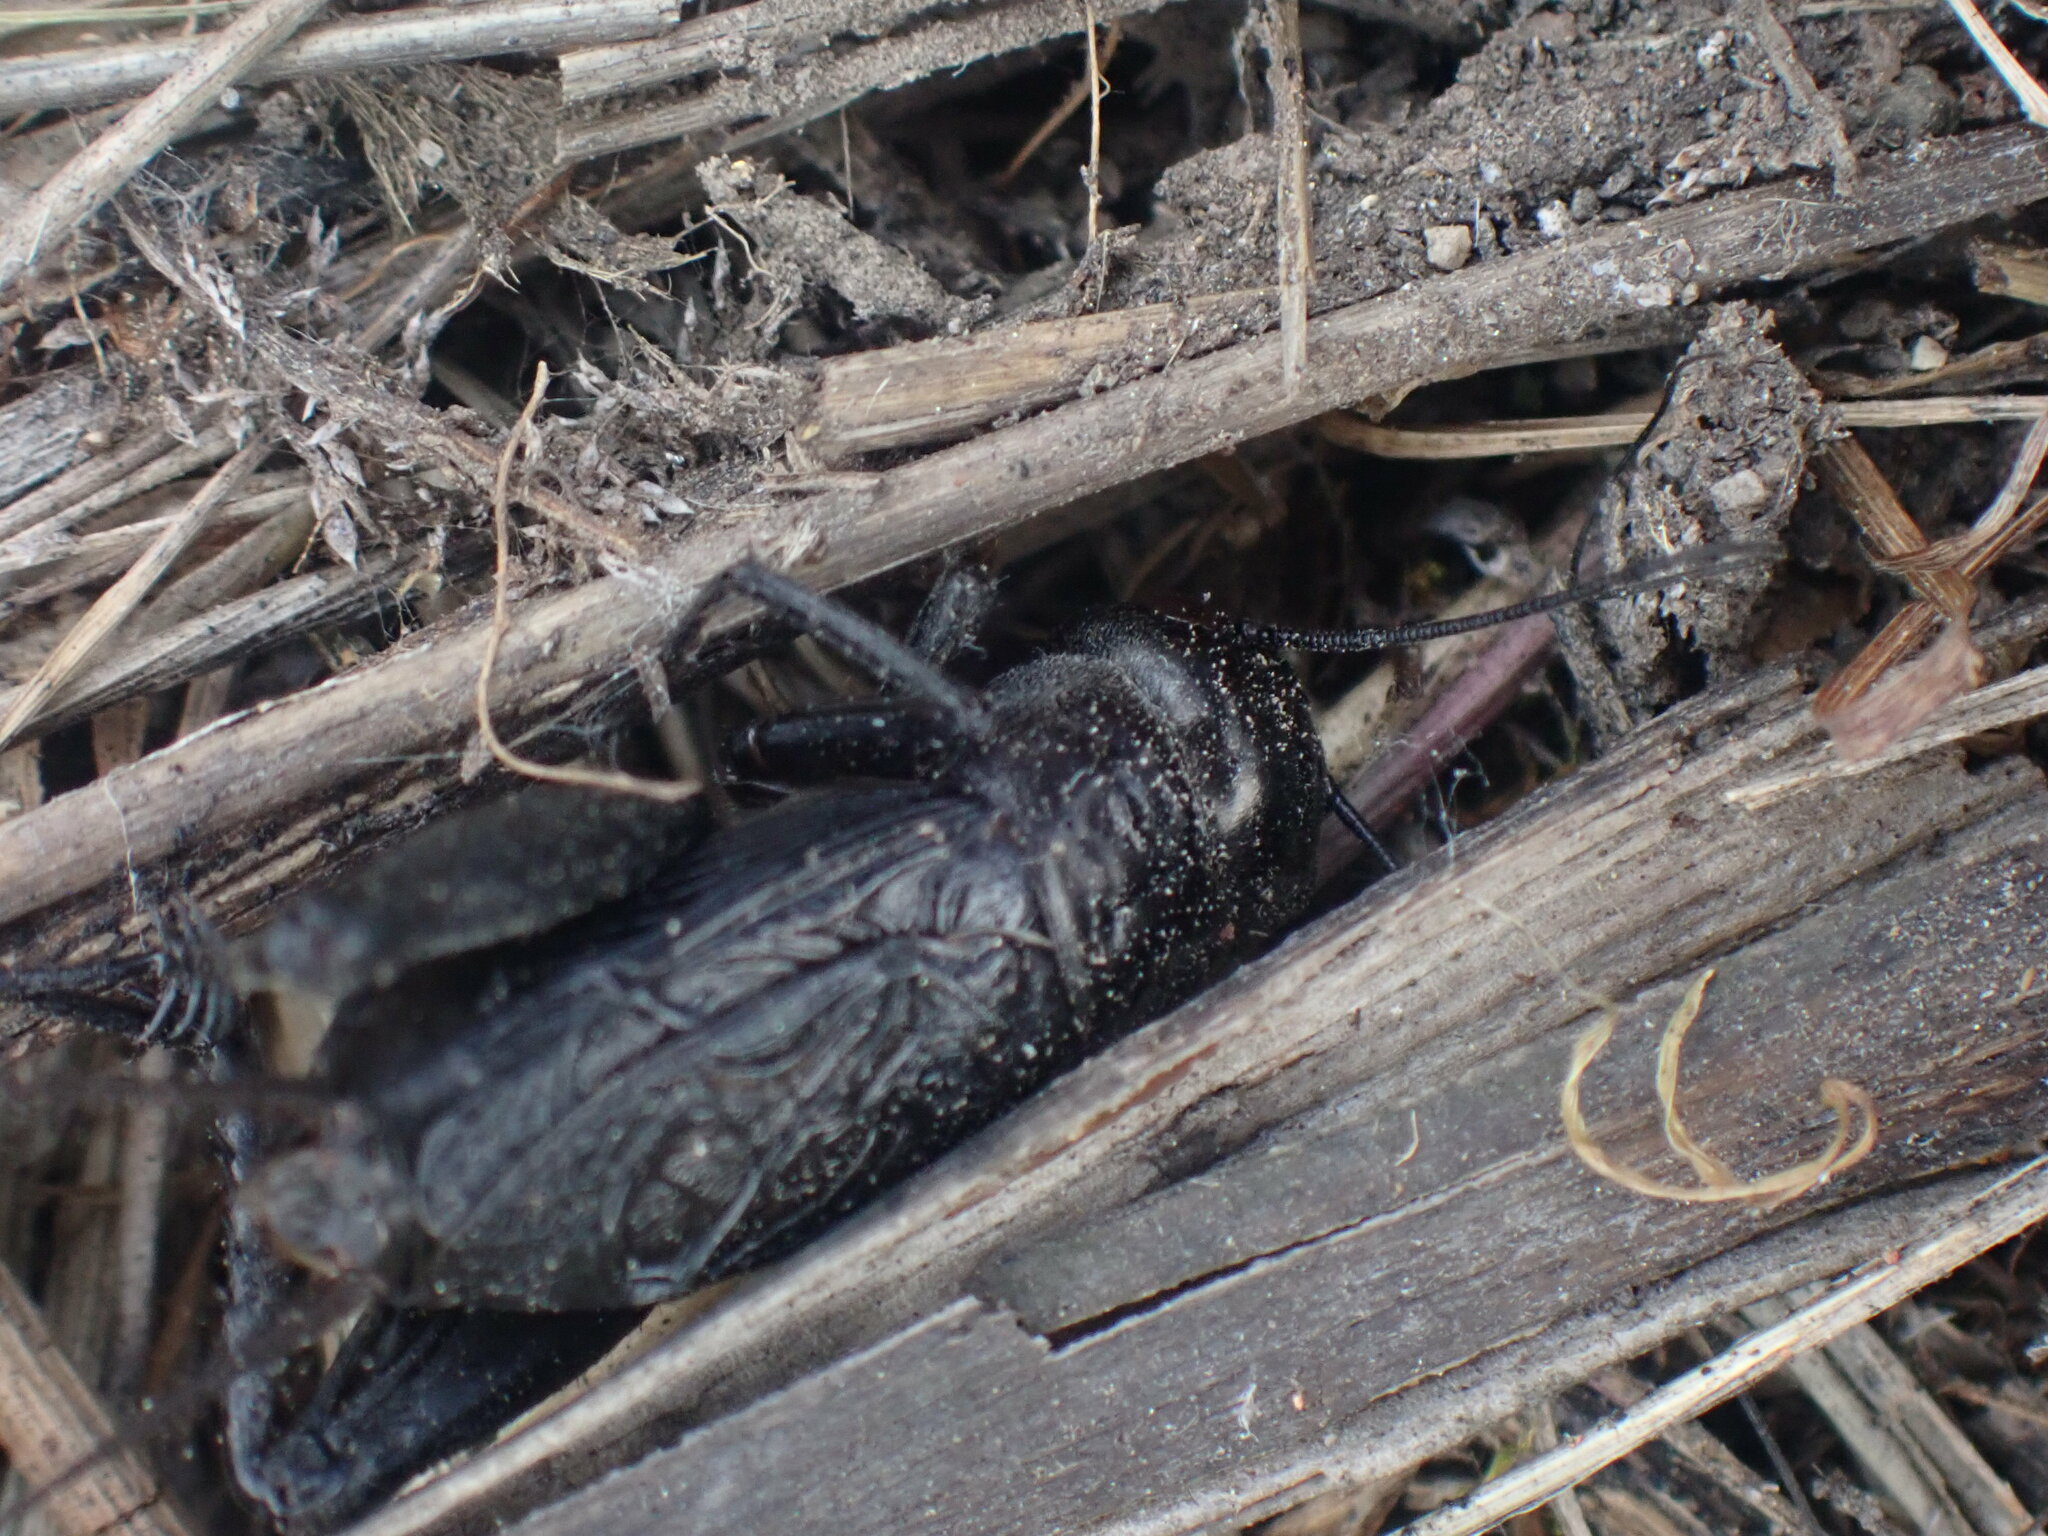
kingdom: Animalia
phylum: Arthropoda
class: Insecta
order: Orthoptera
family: Gryllidae
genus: Gryllus
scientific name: Gryllus veletis
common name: Spring field cricket
